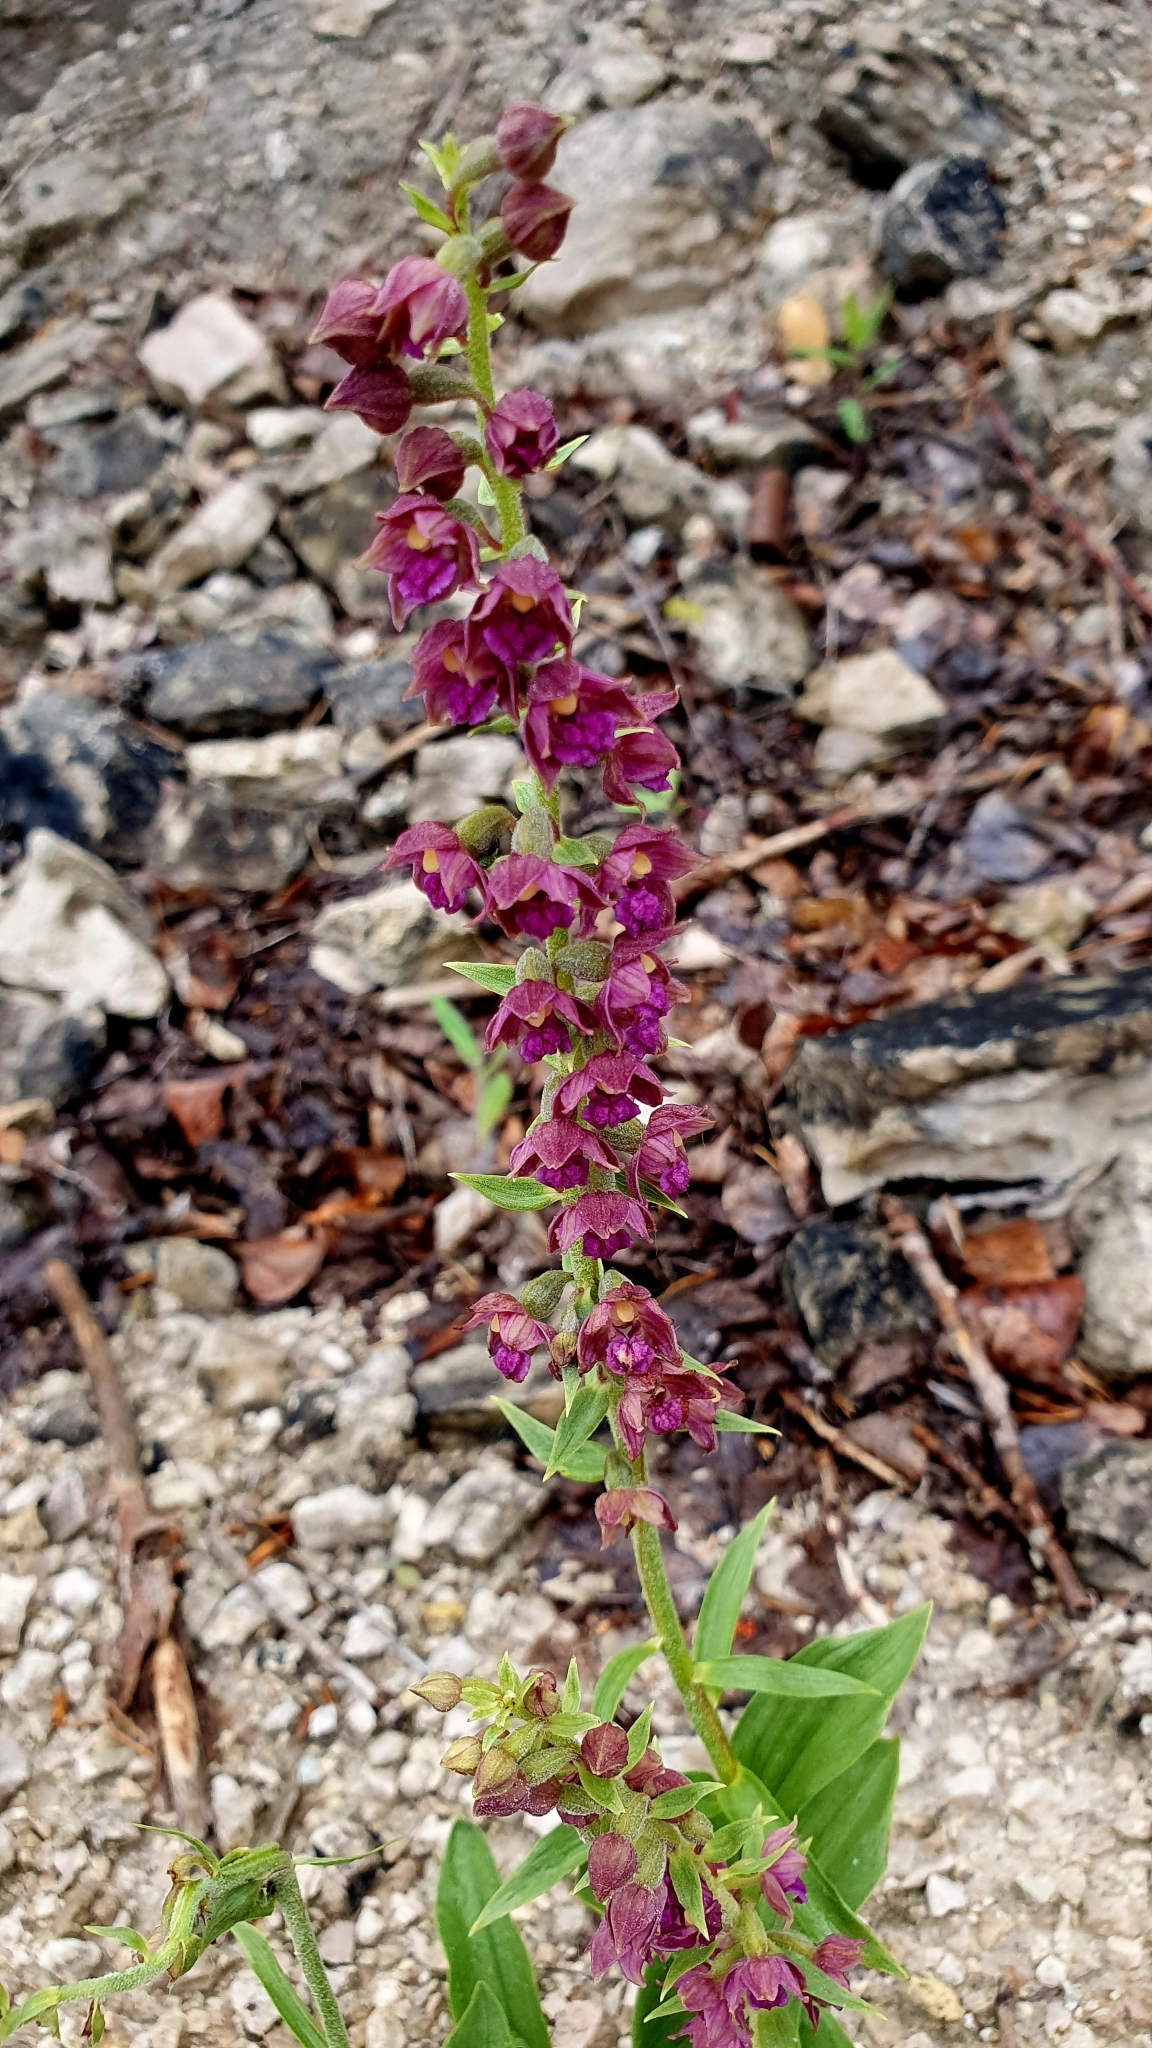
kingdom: Plantae
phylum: Tracheophyta
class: Liliopsida
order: Asparagales
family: Orchidaceae
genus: Epipactis
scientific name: Epipactis atrorubens
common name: Dark-red helleborine
